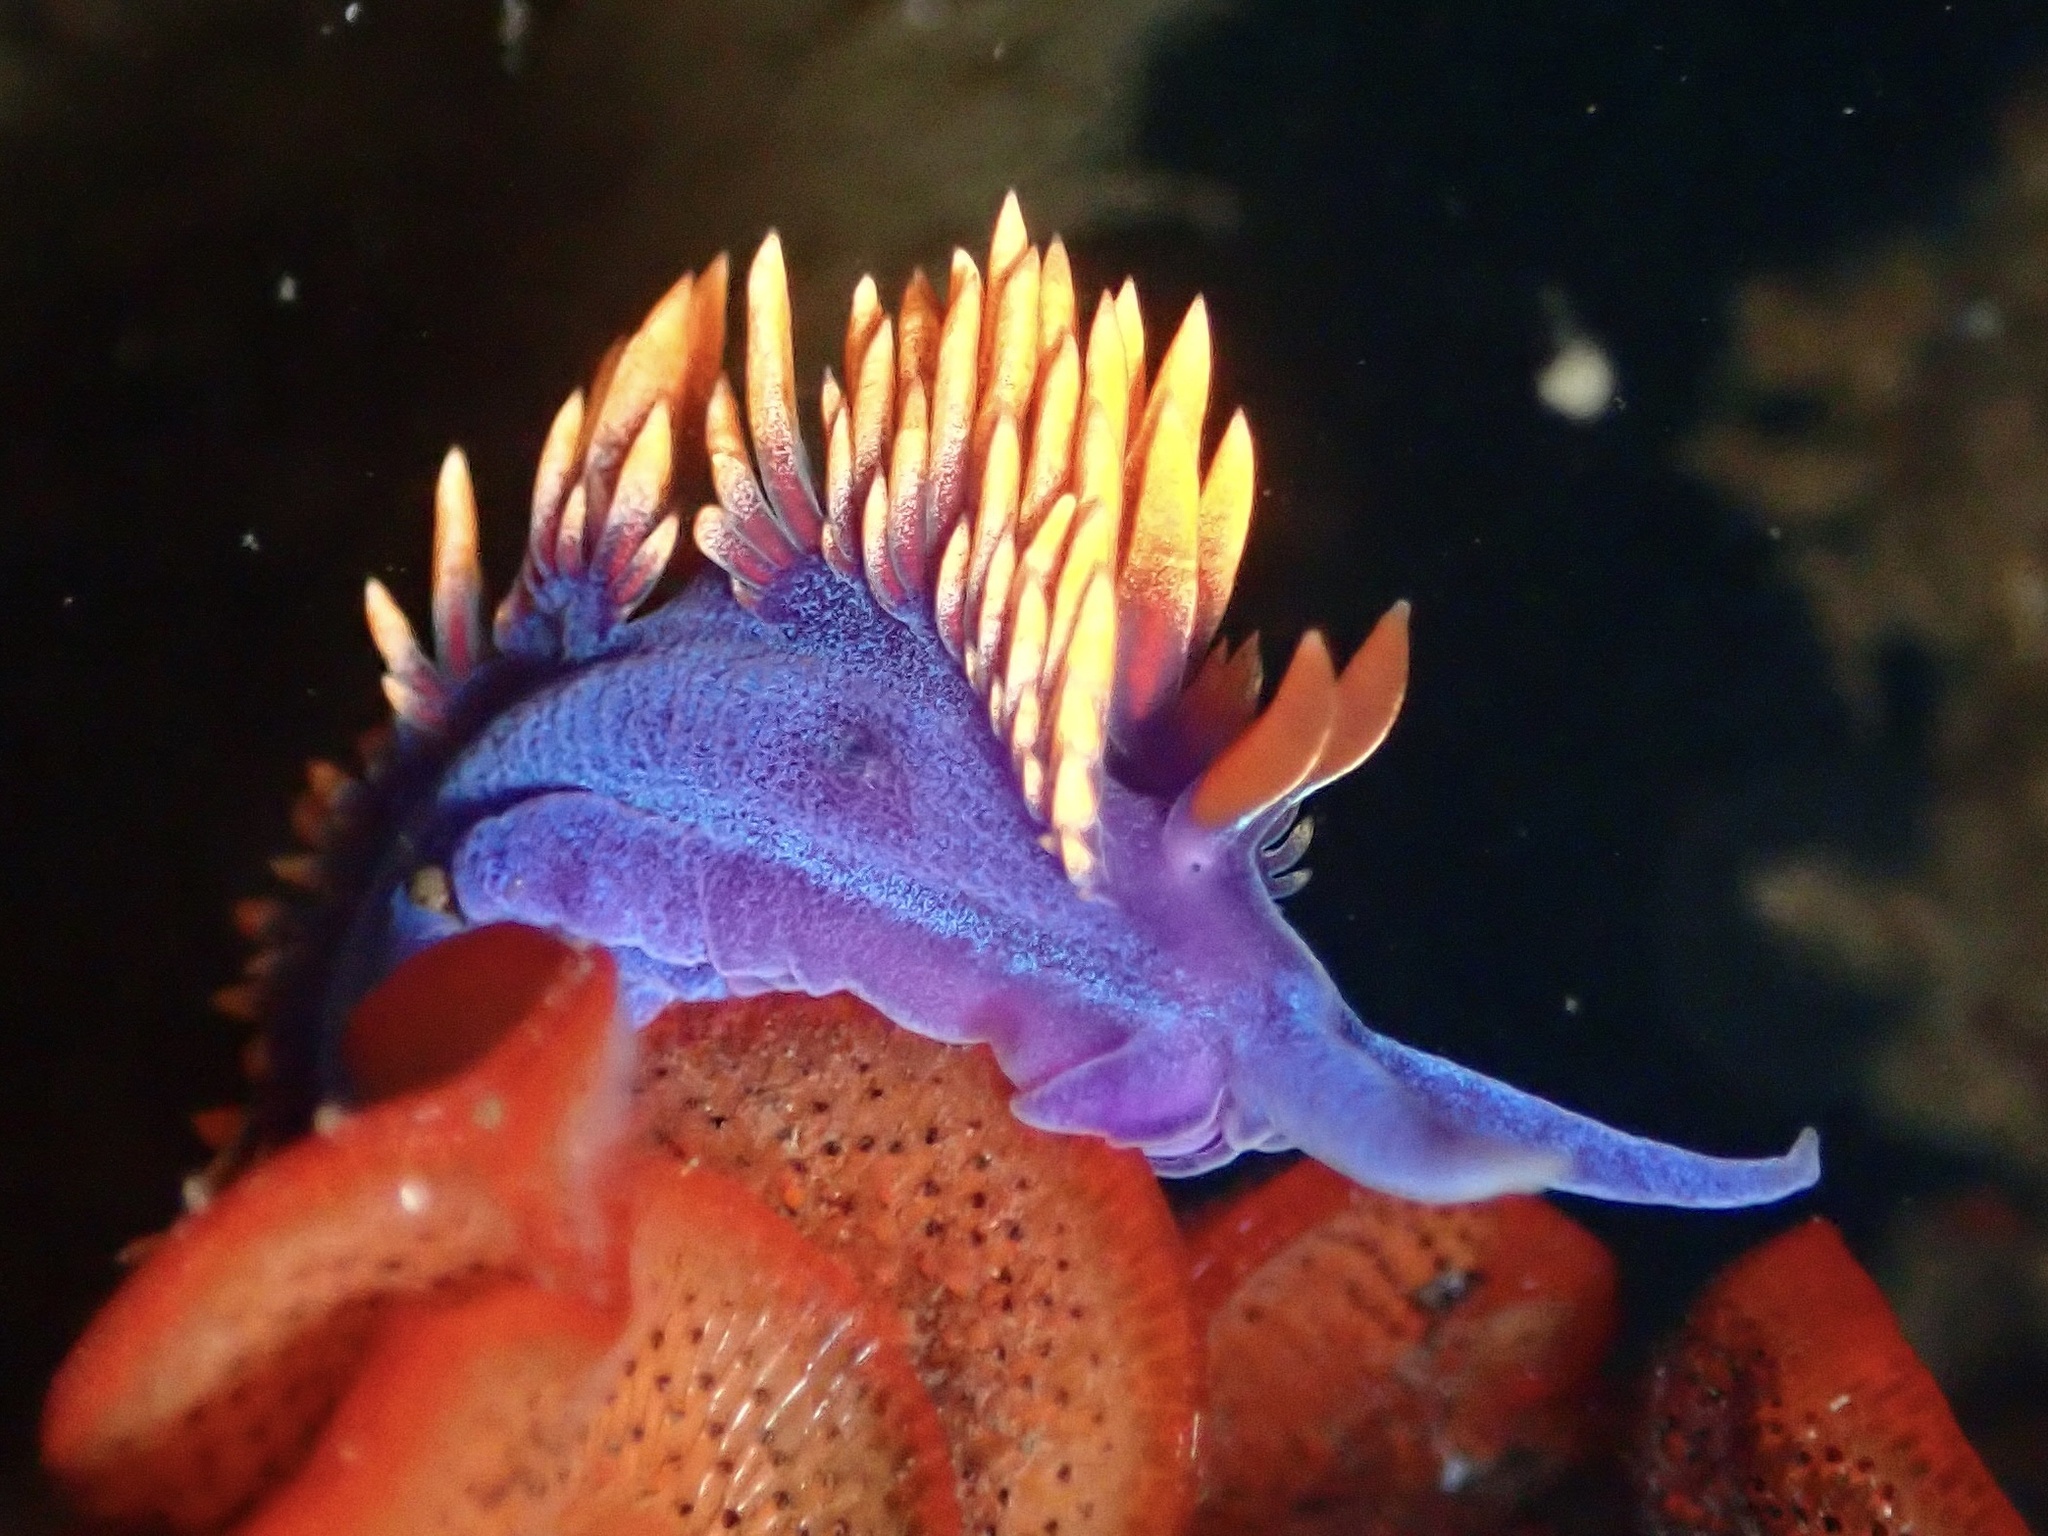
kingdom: Animalia
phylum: Mollusca
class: Gastropoda
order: Nudibranchia
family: Flabellinopsidae
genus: Flabellinopsis
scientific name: Flabellinopsis iodinea
